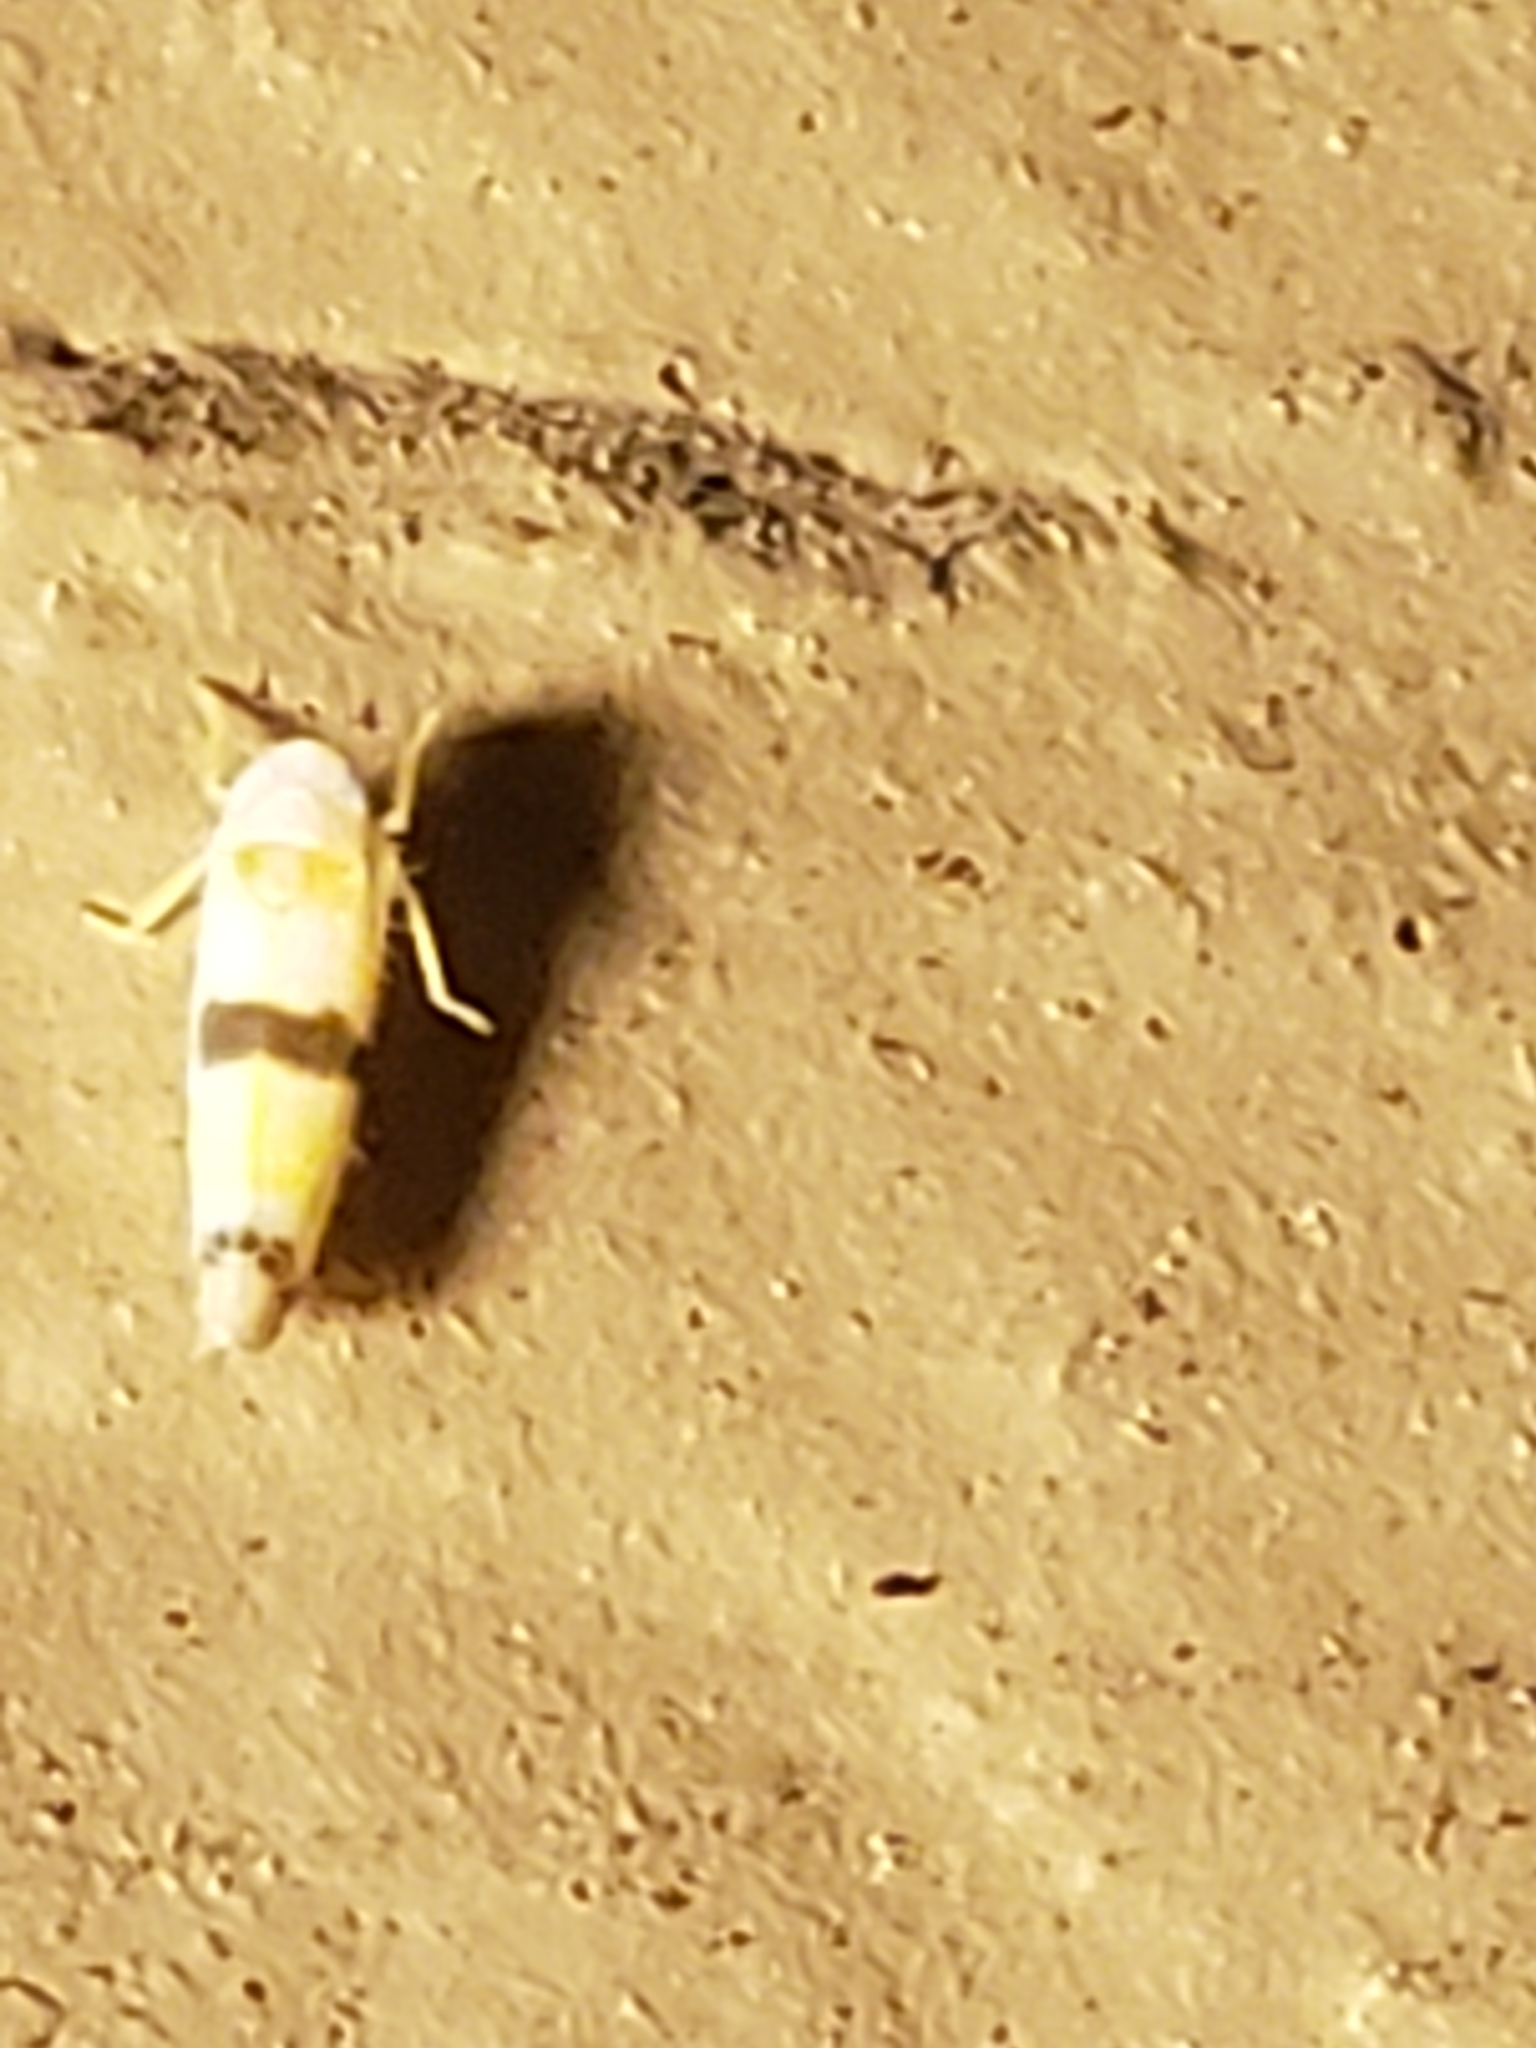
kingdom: Animalia
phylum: Arthropoda
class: Insecta
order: Hemiptera
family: Cicadellidae
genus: Empoa
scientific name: Empoa gillettei
